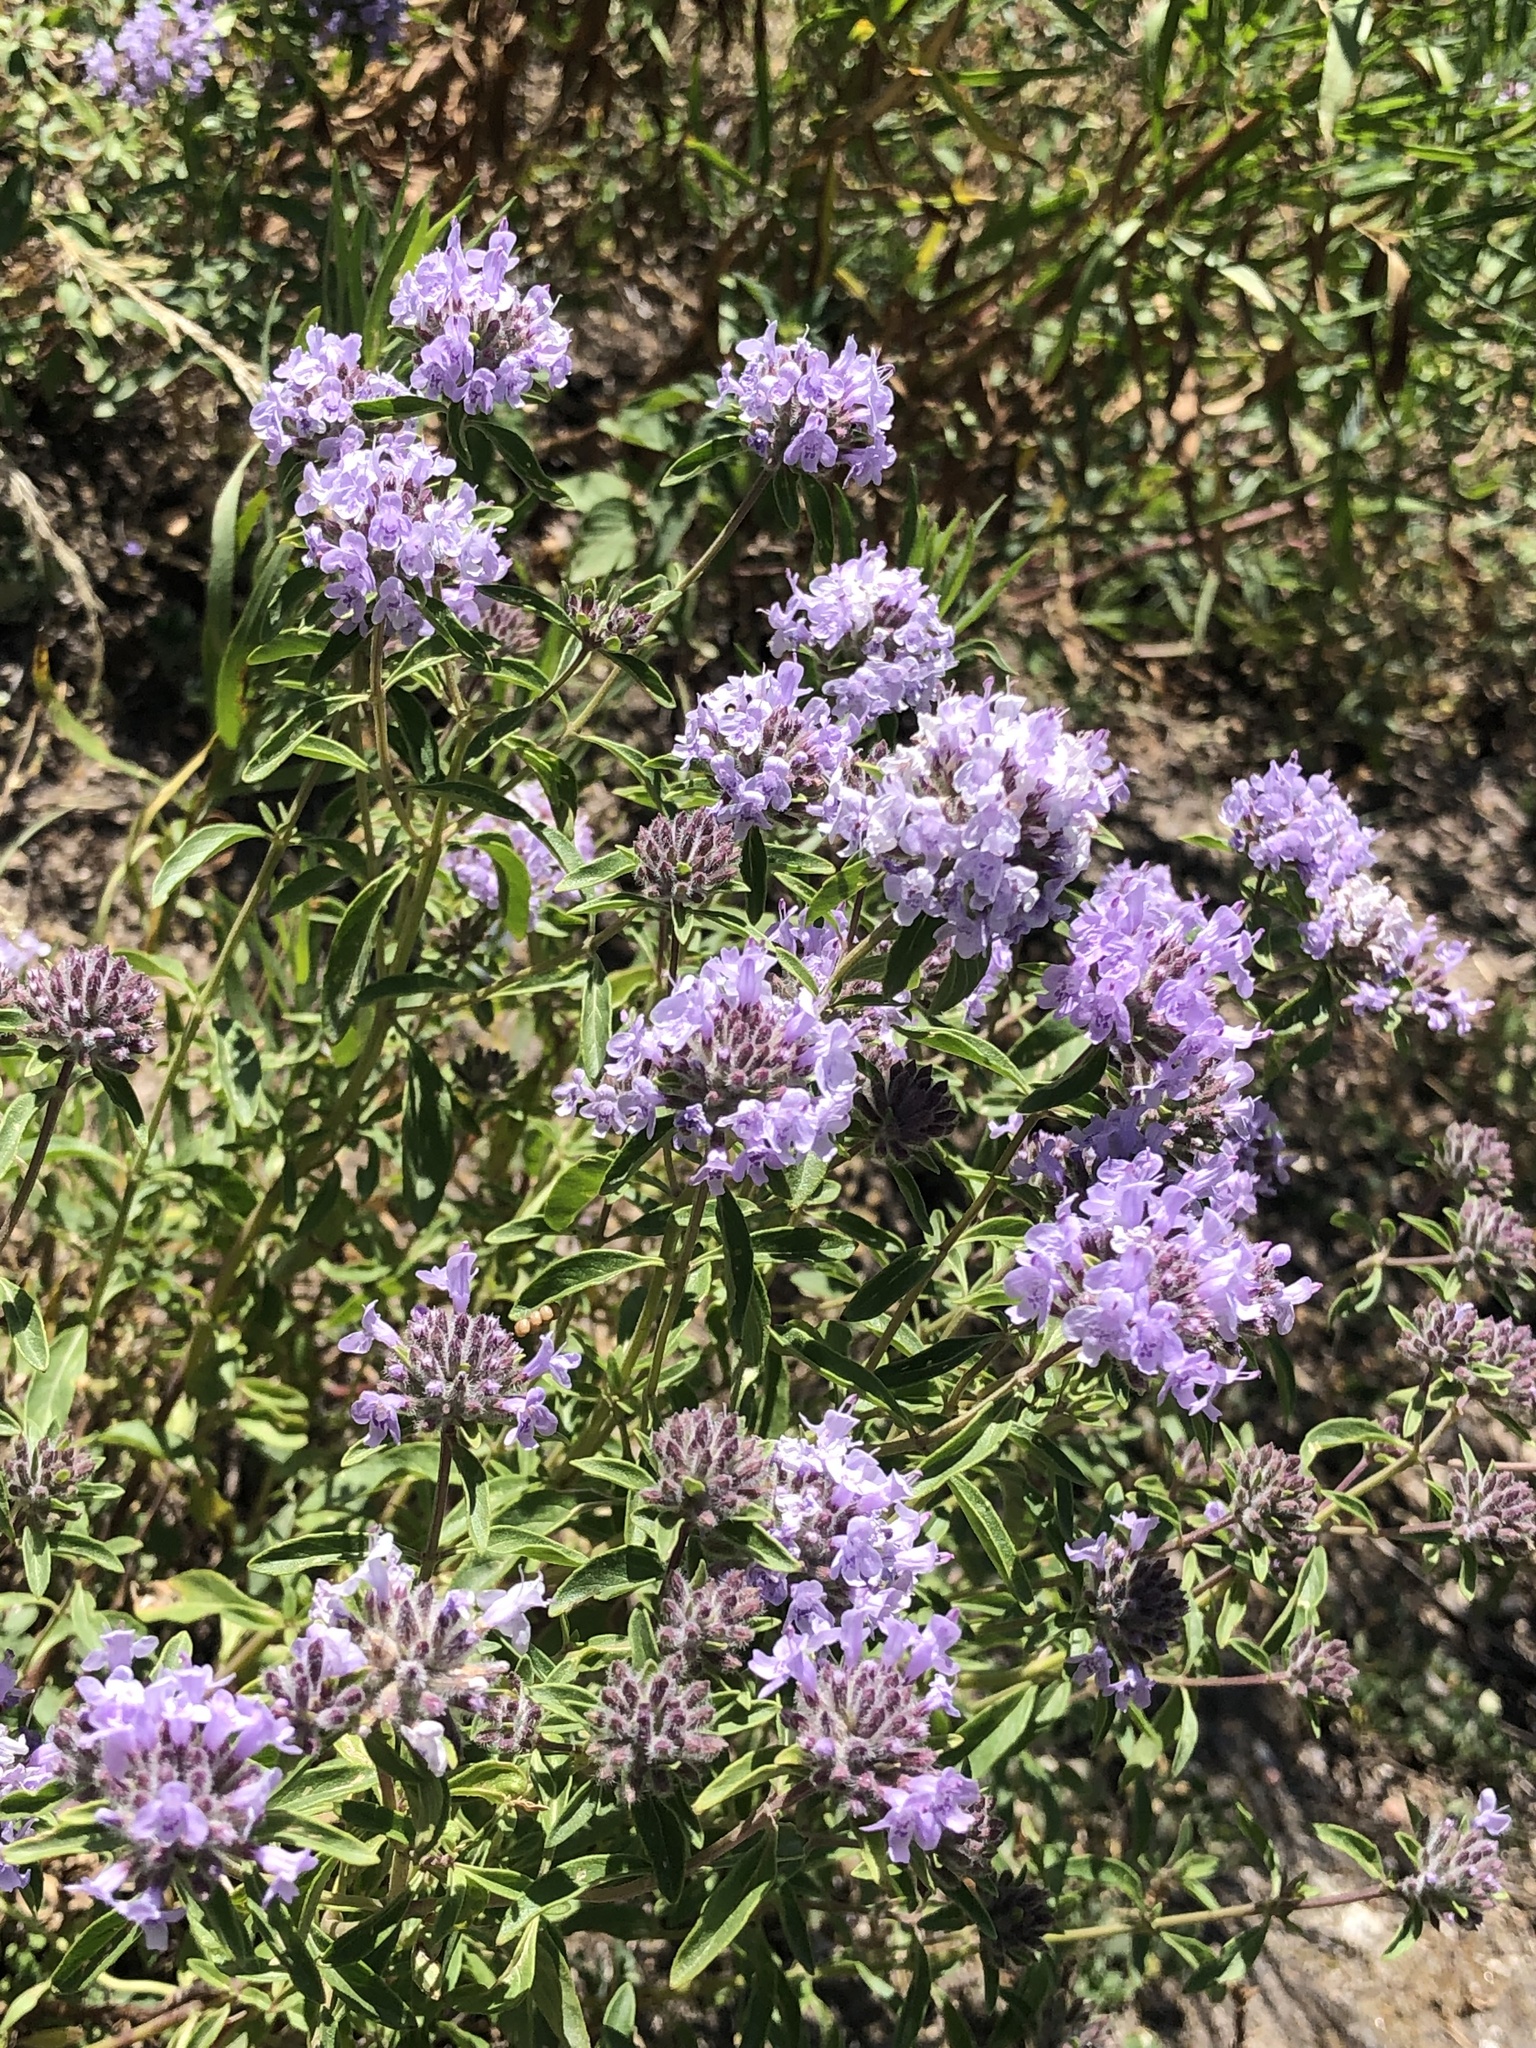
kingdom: Plantae
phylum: Tracheophyta
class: Magnoliopsida
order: Lamiales
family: Lamiaceae
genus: Ziziphora
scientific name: Ziziphora clinopodioides
